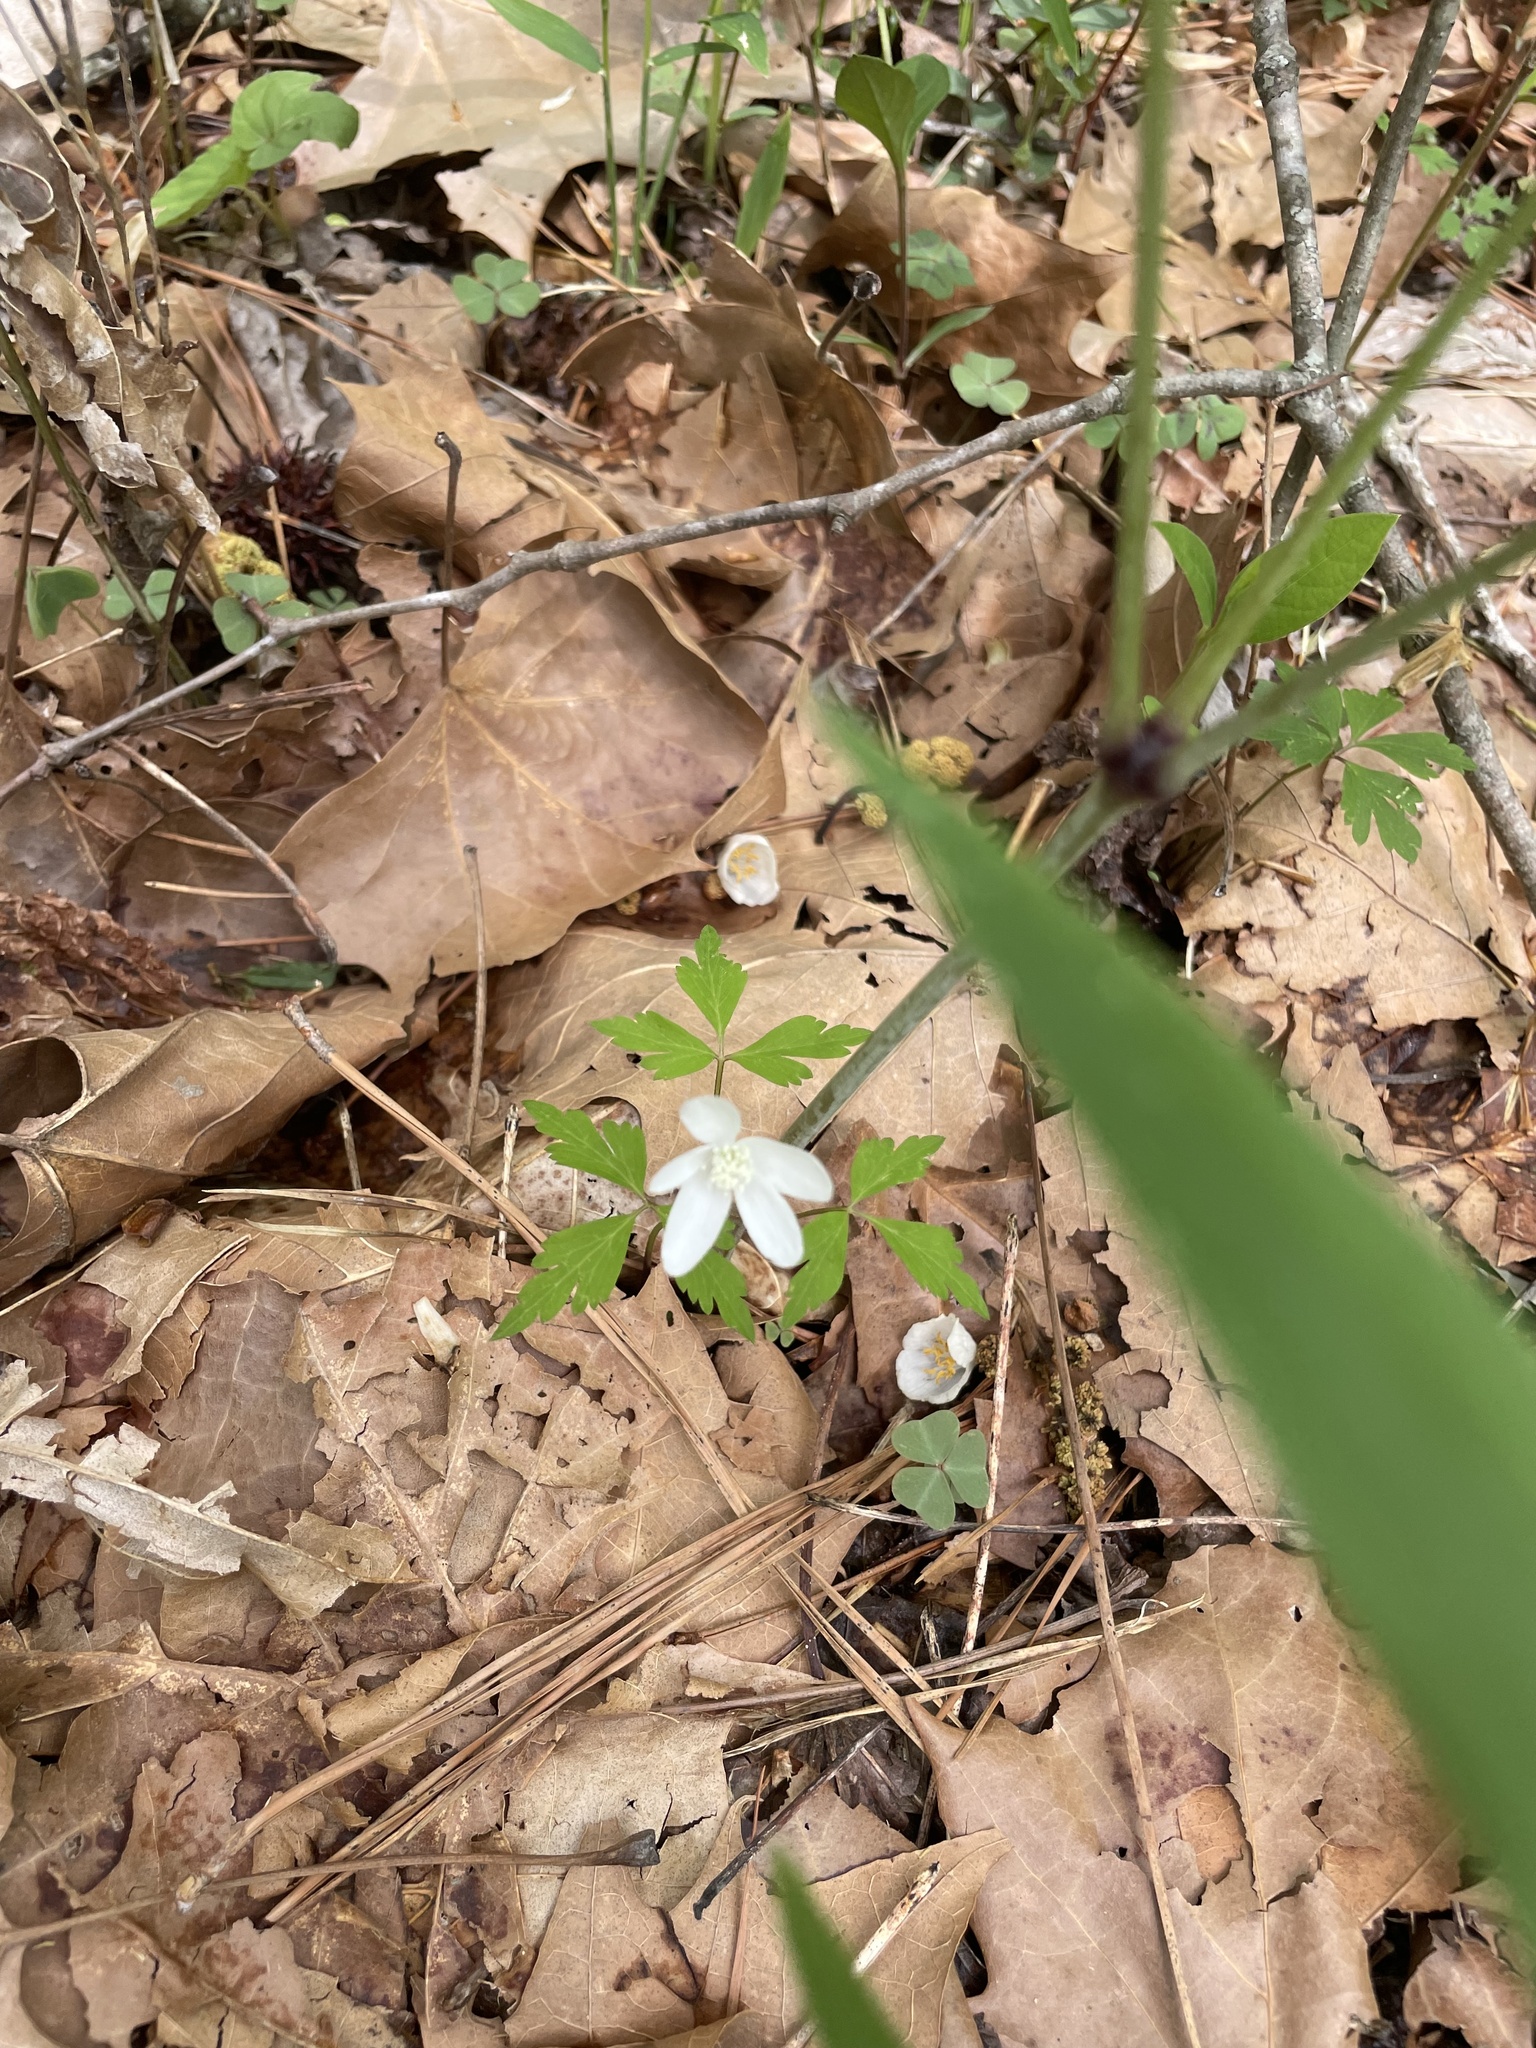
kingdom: Plantae
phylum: Tracheophyta
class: Magnoliopsida
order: Ranunculales
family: Ranunculaceae
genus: Anemone
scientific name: Anemone quinquefolia
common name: Wood anemone
